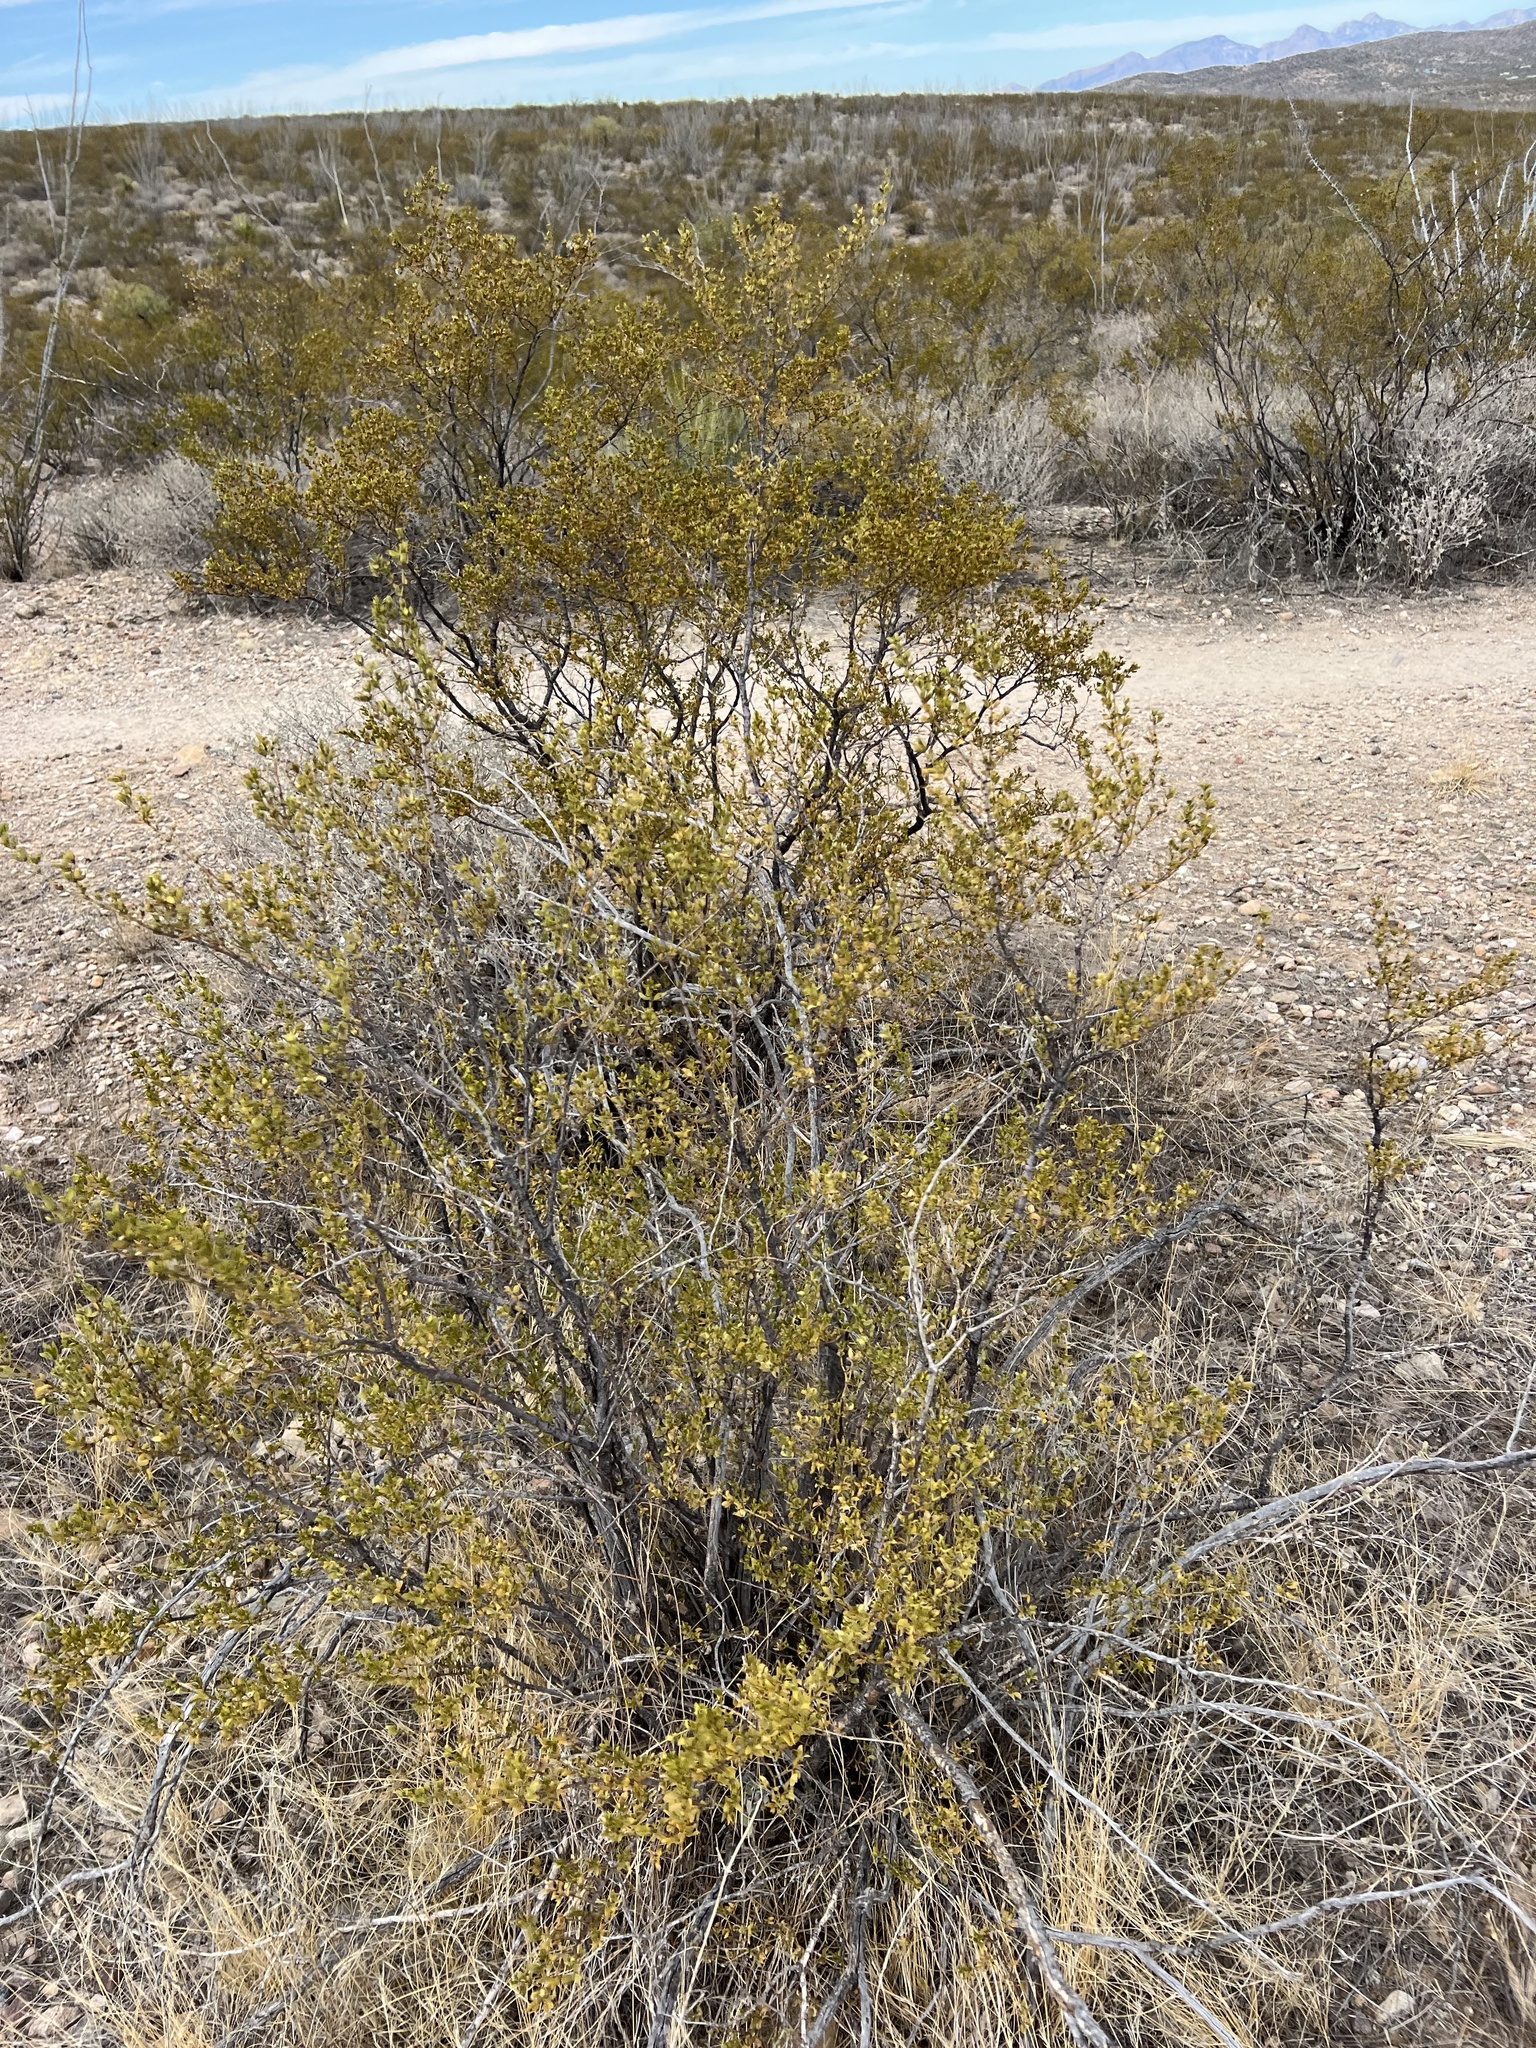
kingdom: Plantae
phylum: Tracheophyta
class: Magnoliopsida
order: Zygophyllales
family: Zygophyllaceae
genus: Larrea
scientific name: Larrea tridentata
